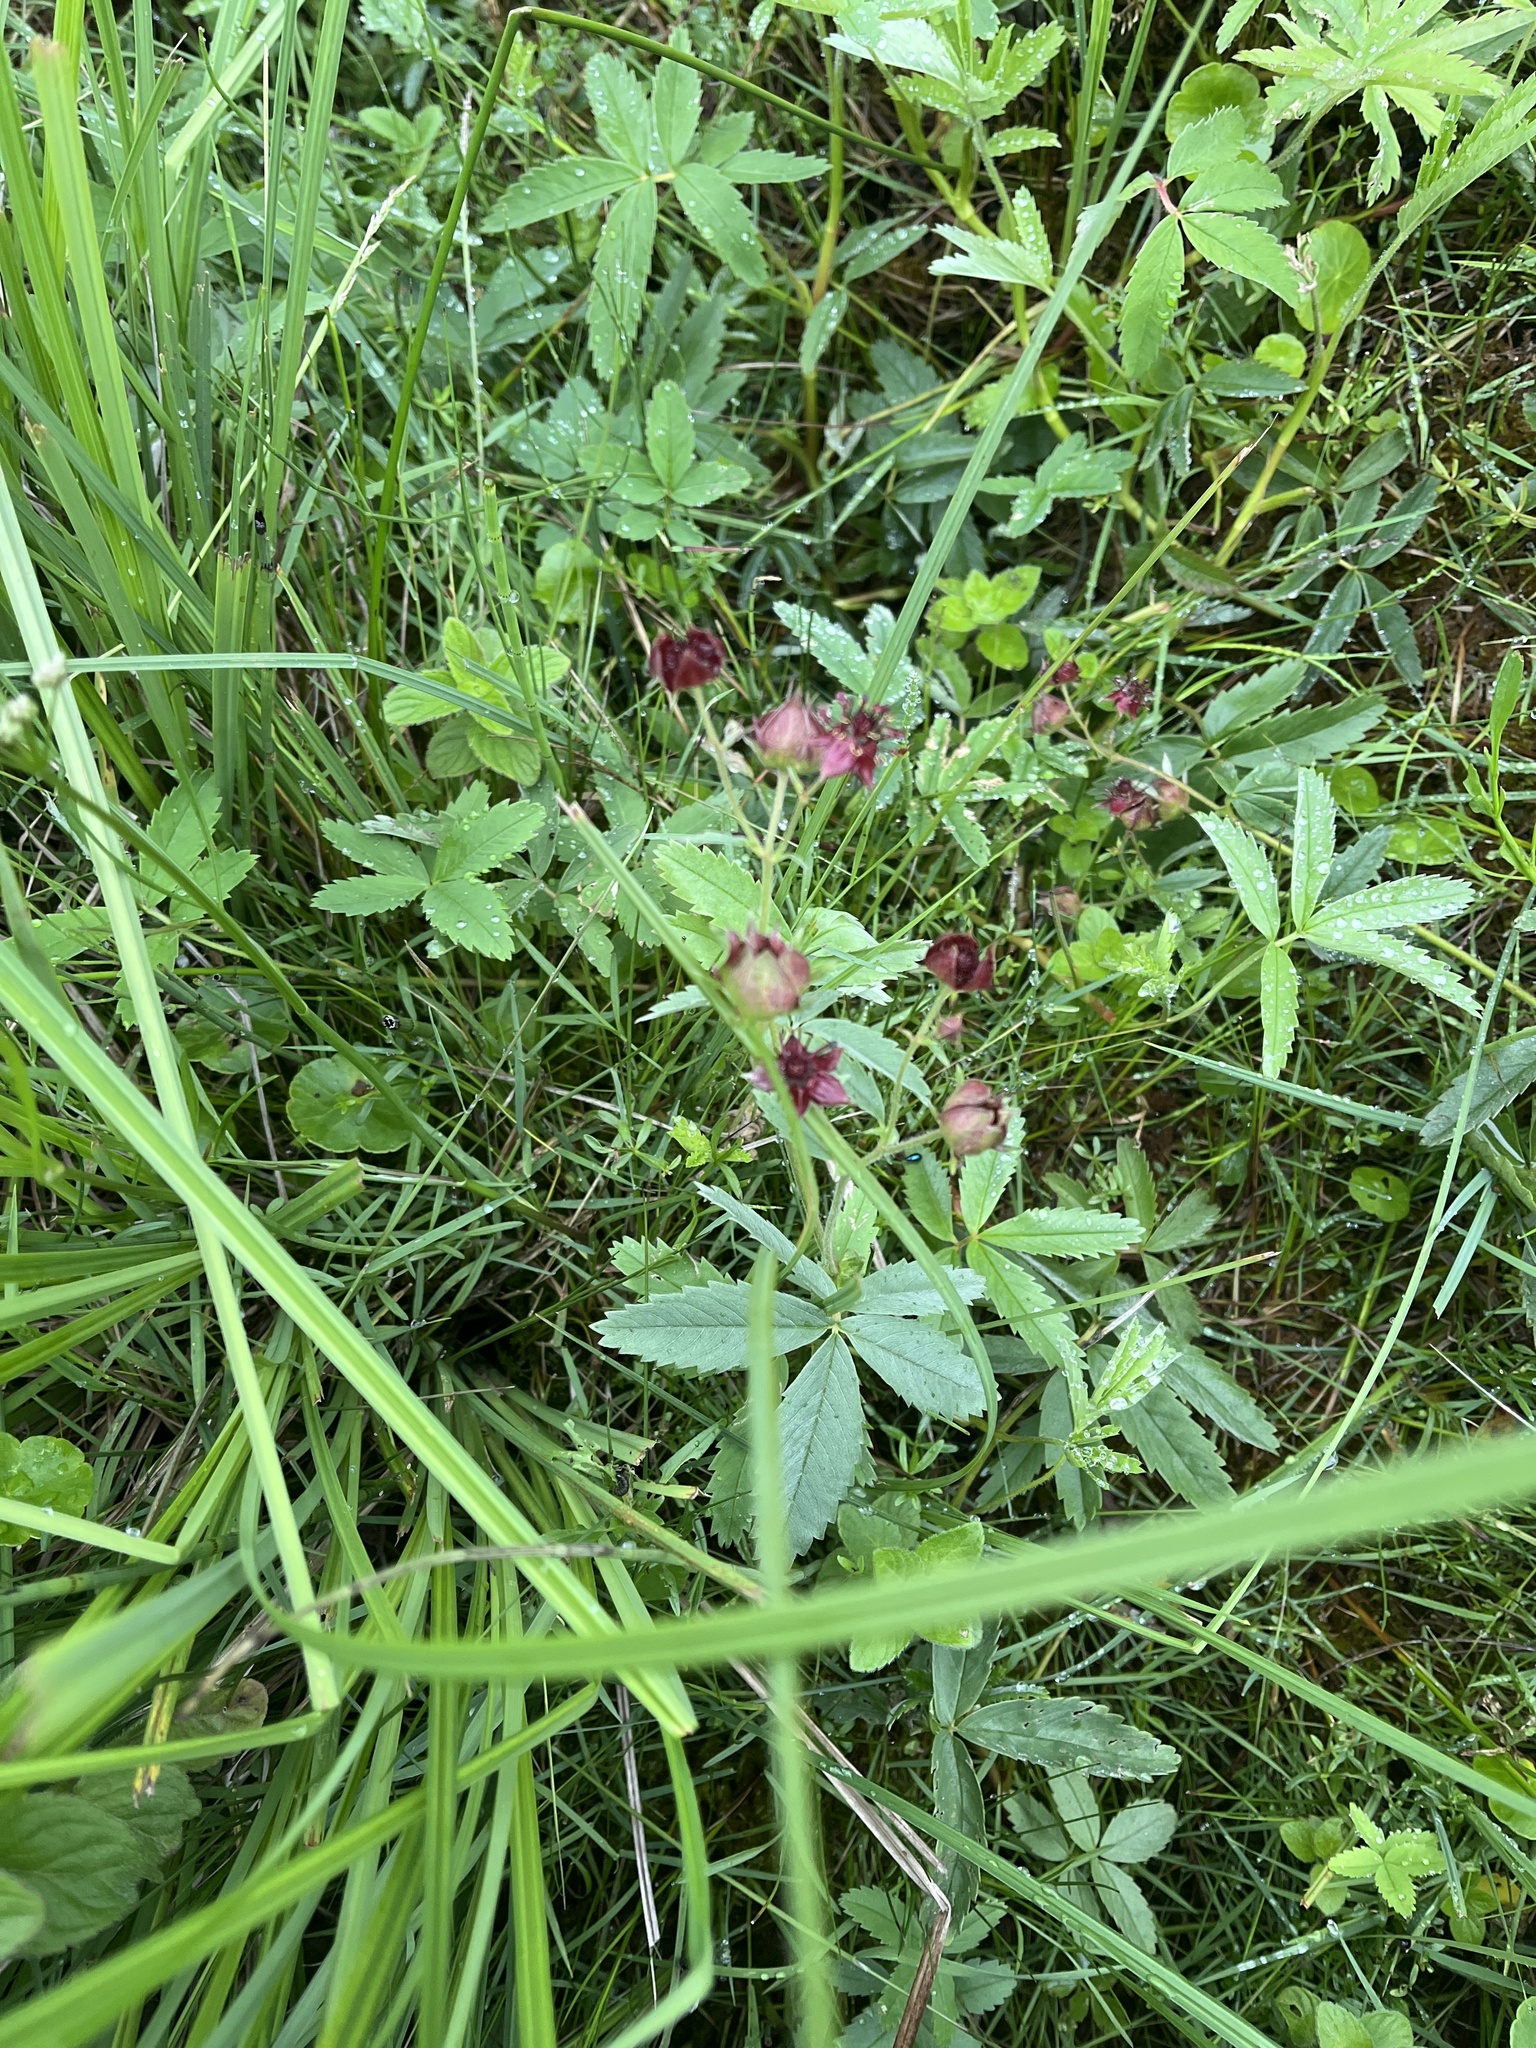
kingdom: Plantae
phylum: Tracheophyta
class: Magnoliopsida
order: Rosales
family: Rosaceae
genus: Comarum
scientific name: Comarum palustre
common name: Marsh cinquefoil
